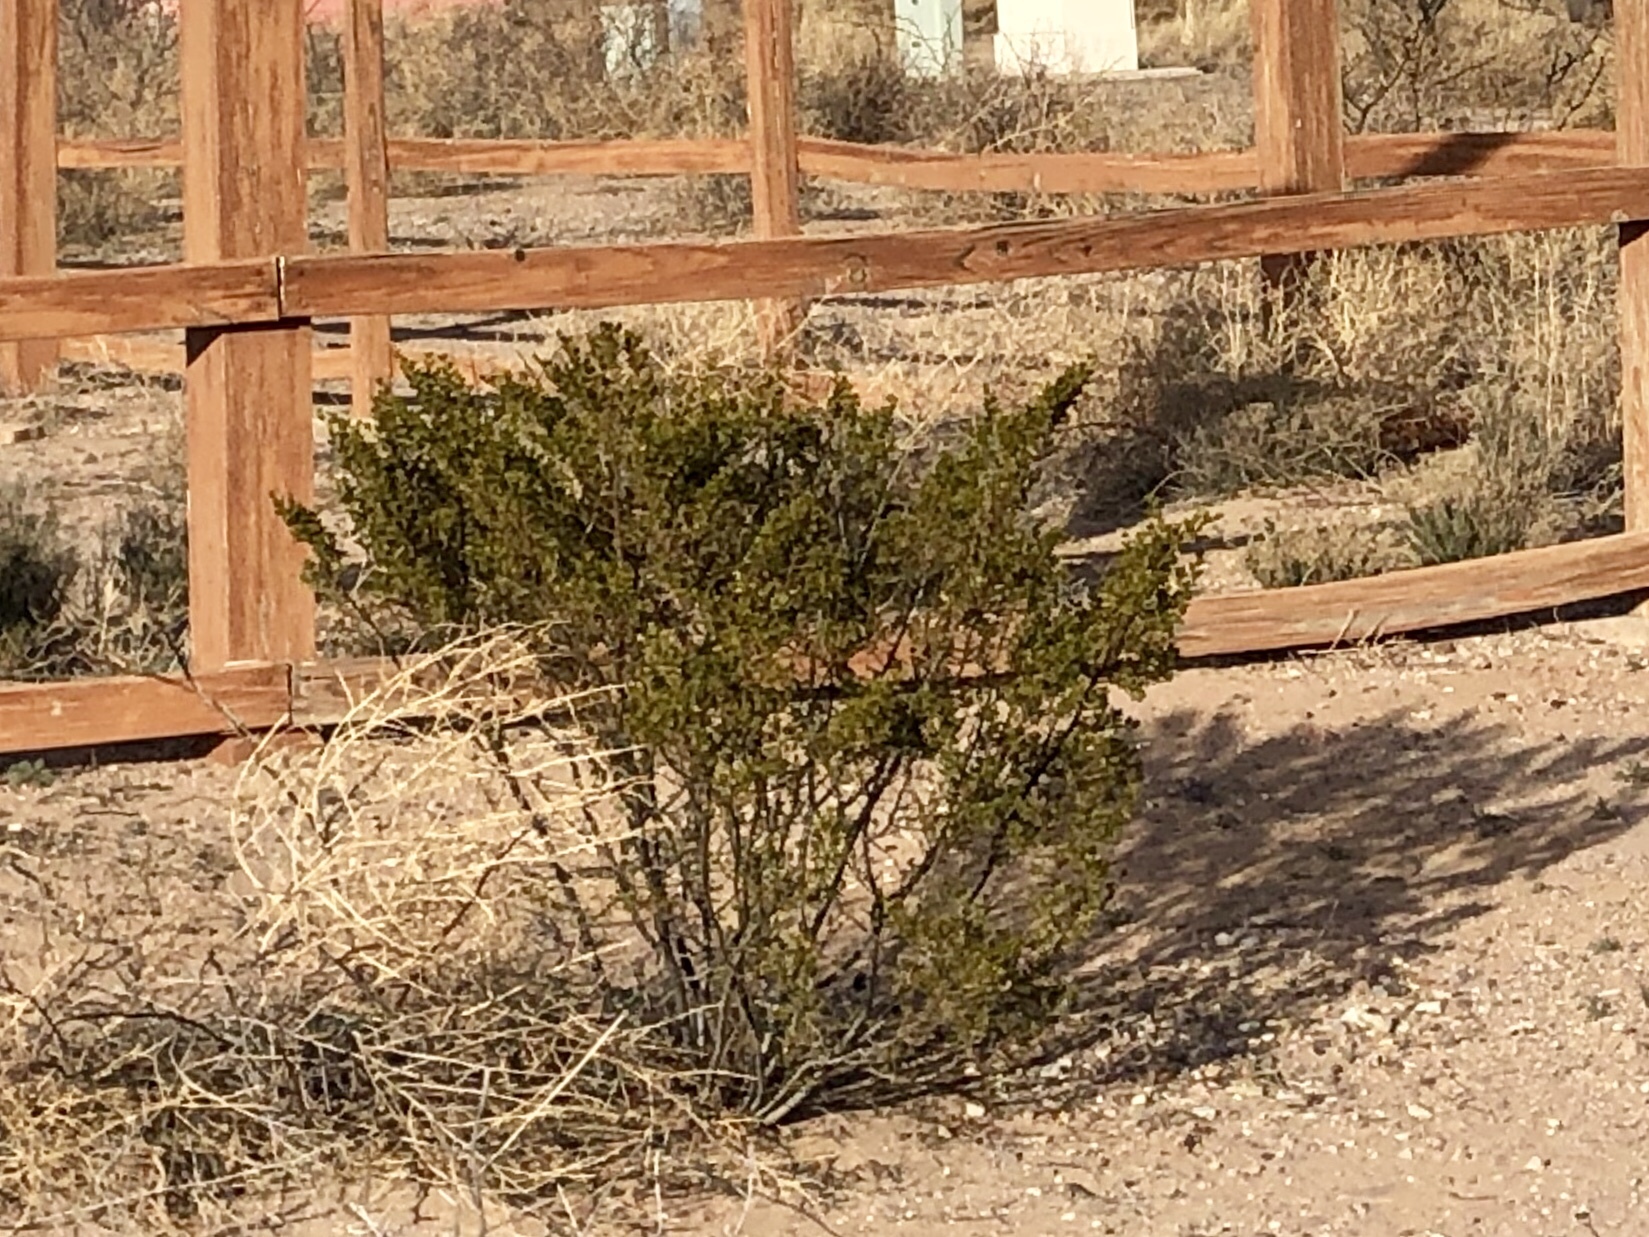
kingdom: Plantae
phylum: Tracheophyta
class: Magnoliopsida
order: Zygophyllales
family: Zygophyllaceae
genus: Larrea
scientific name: Larrea tridentata
